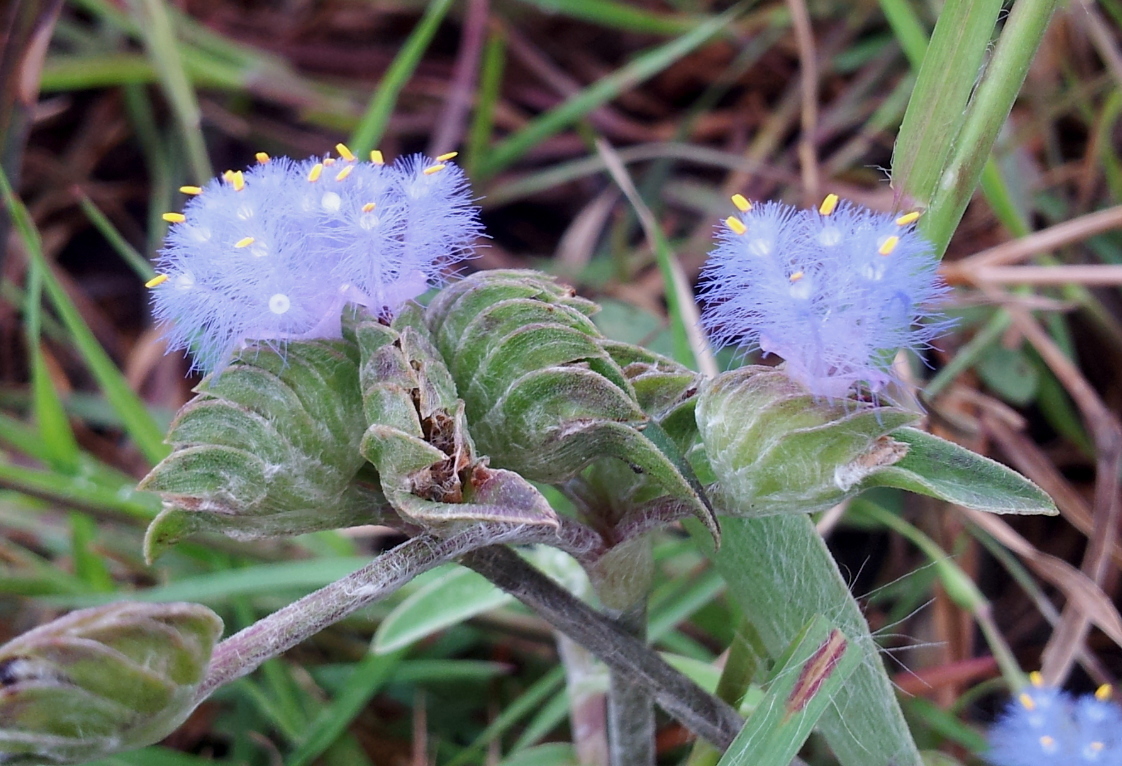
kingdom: Plantae
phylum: Tracheophyta
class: Liliopsida
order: Commelinales
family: Commelinaceae
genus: Cyanotis
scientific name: Cyanotis tuberosa
